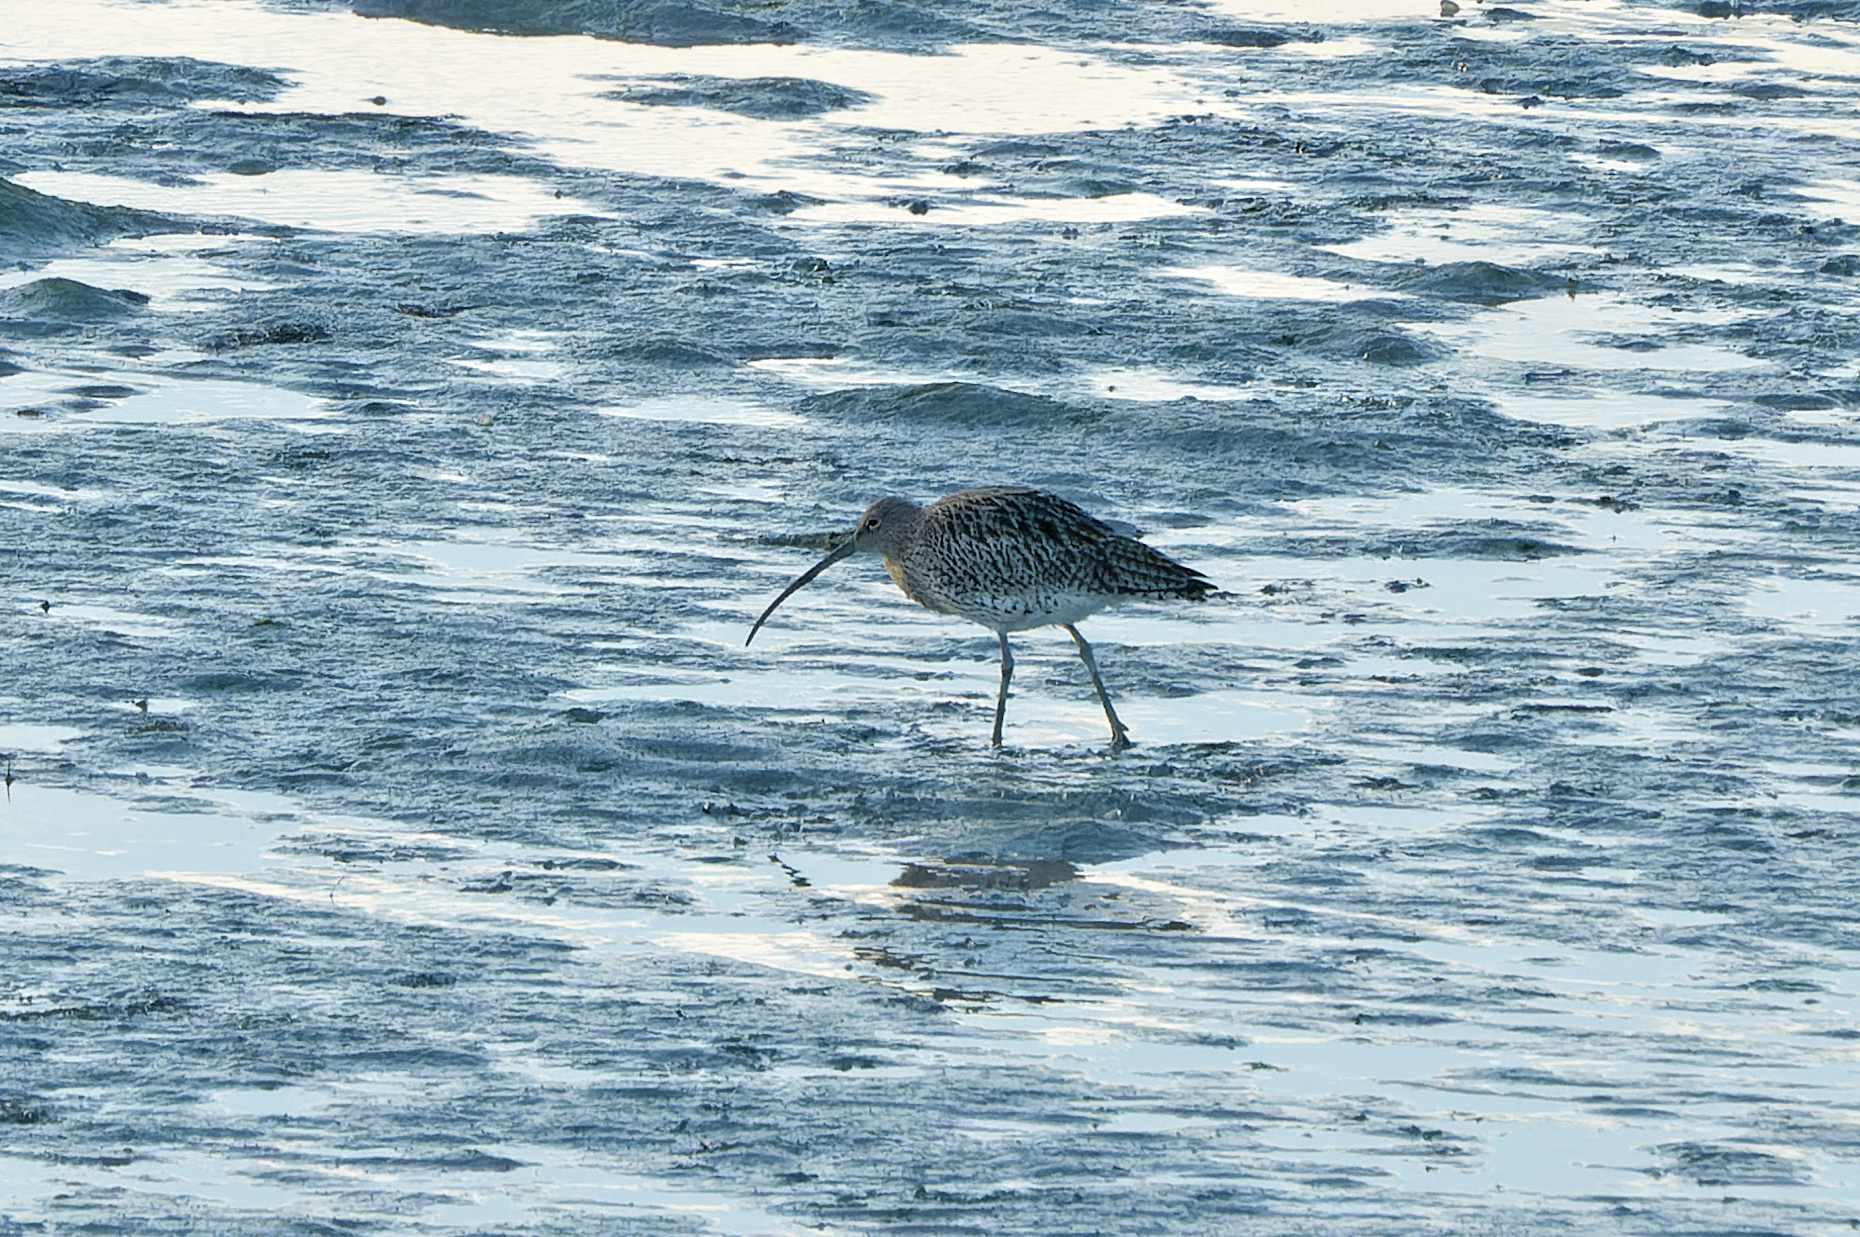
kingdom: Animalia
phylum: Chordata
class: Aves
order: Charadriiformes
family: Scolopacidae
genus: Numenius
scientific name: Numenius arquata
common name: Eurasian curlew
